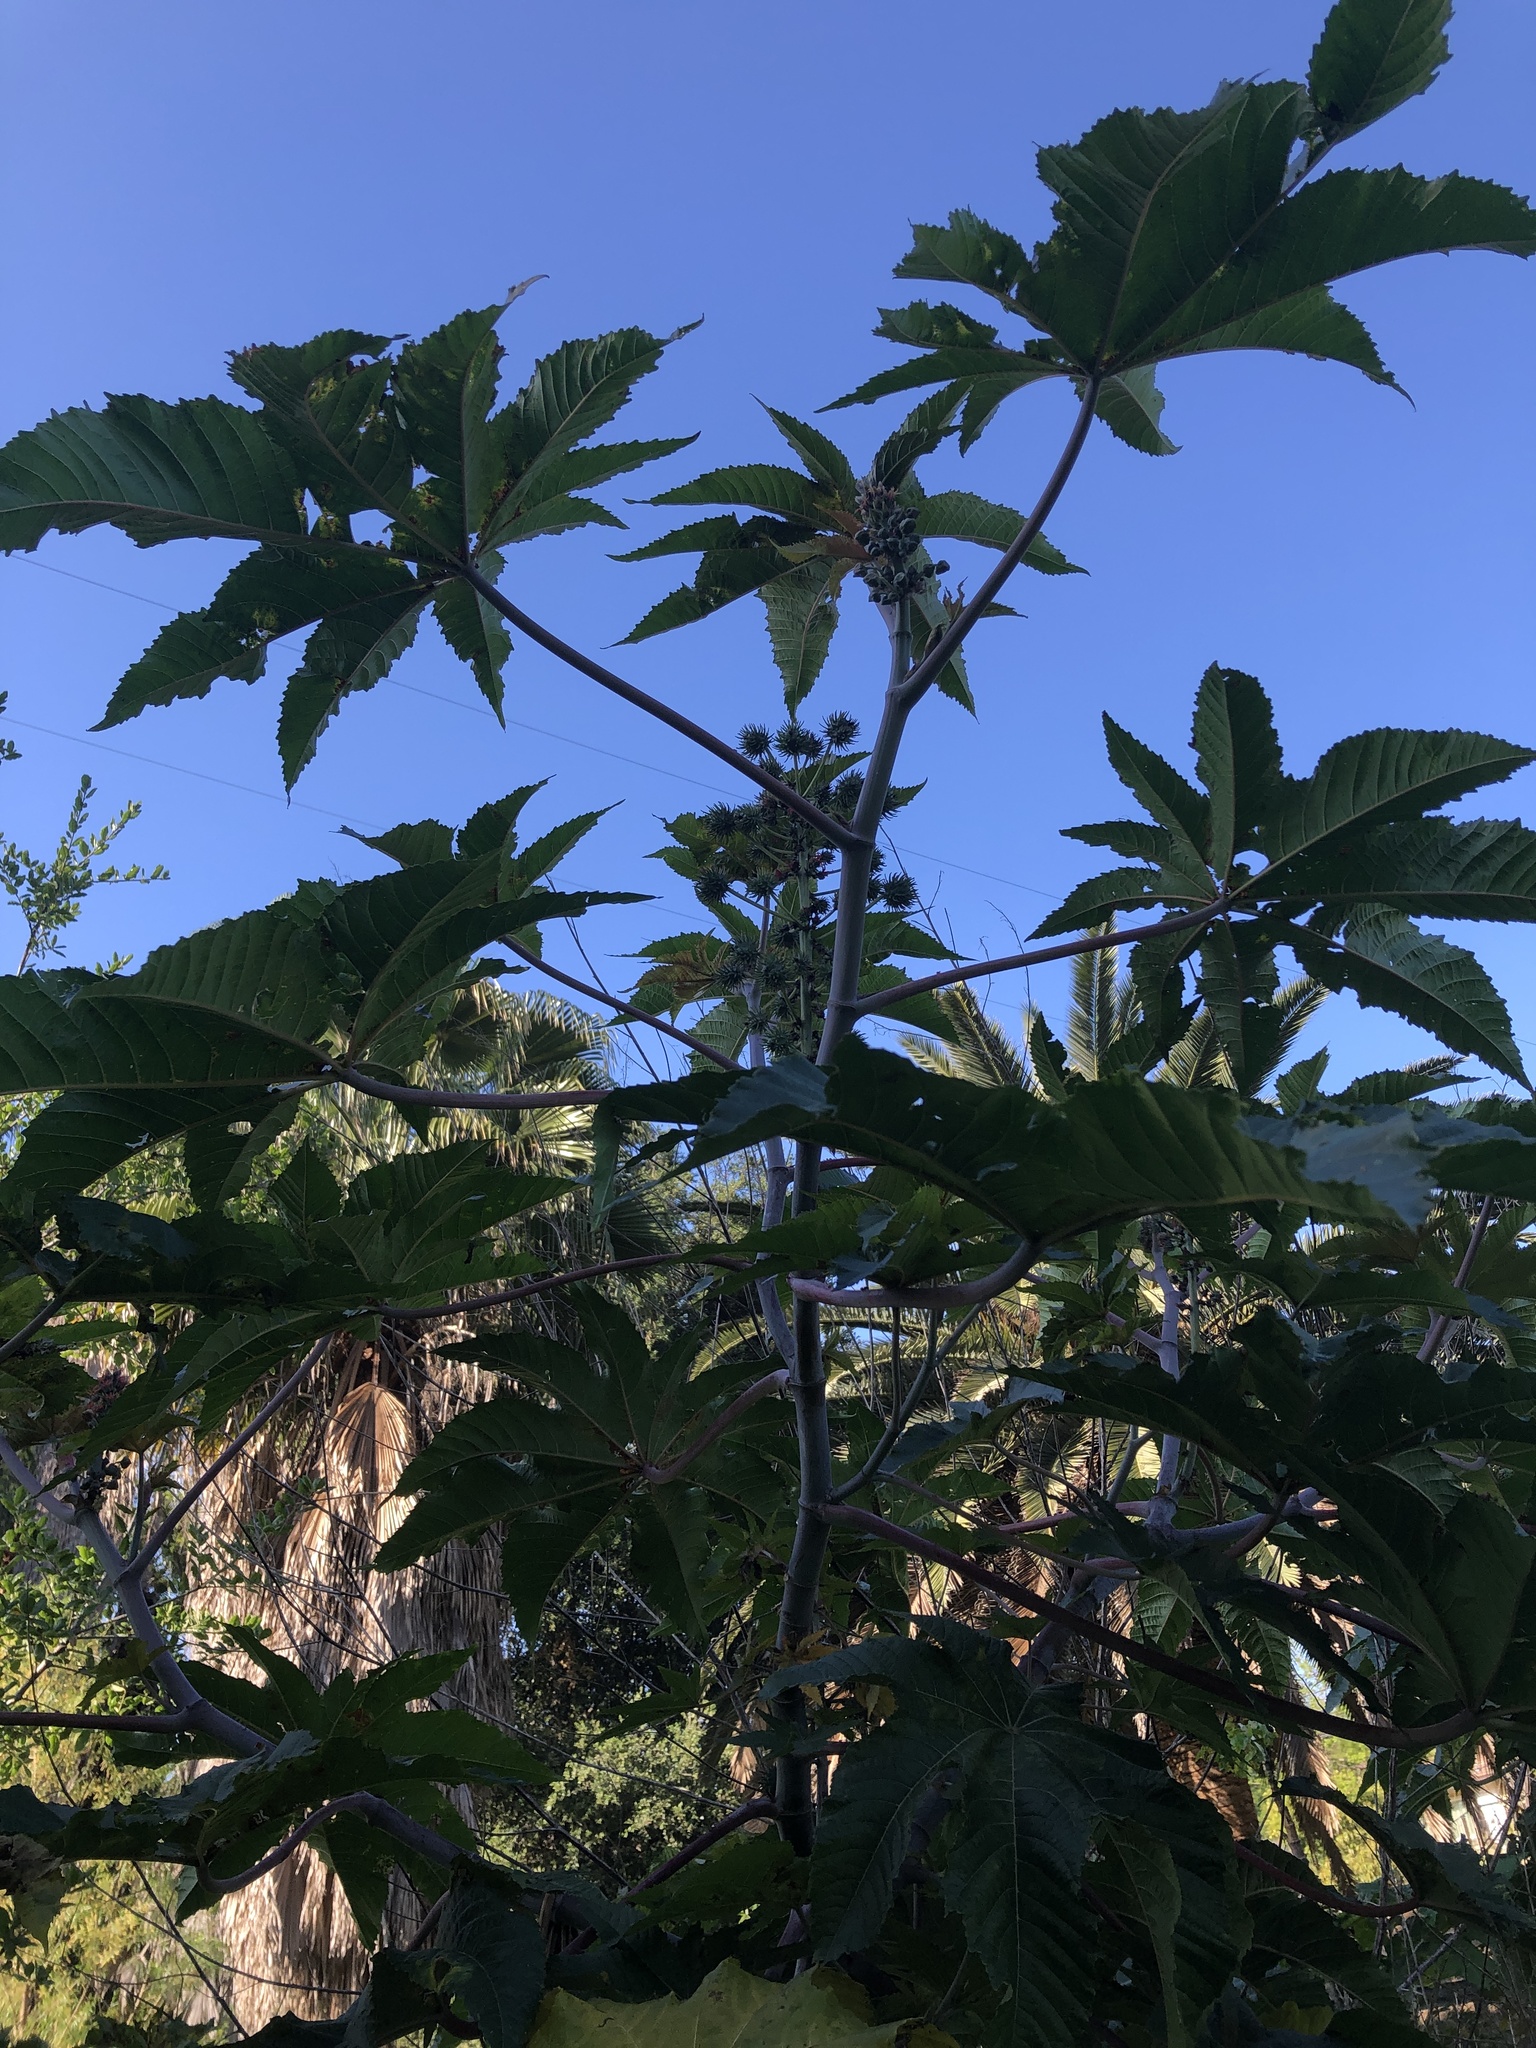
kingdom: Plantae
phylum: Tracheophyta
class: Magnoliopsida
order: Malpighiales
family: Euphorbiaceae
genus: Ricinus
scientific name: Ricinus communis
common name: Castor-oil-plant
